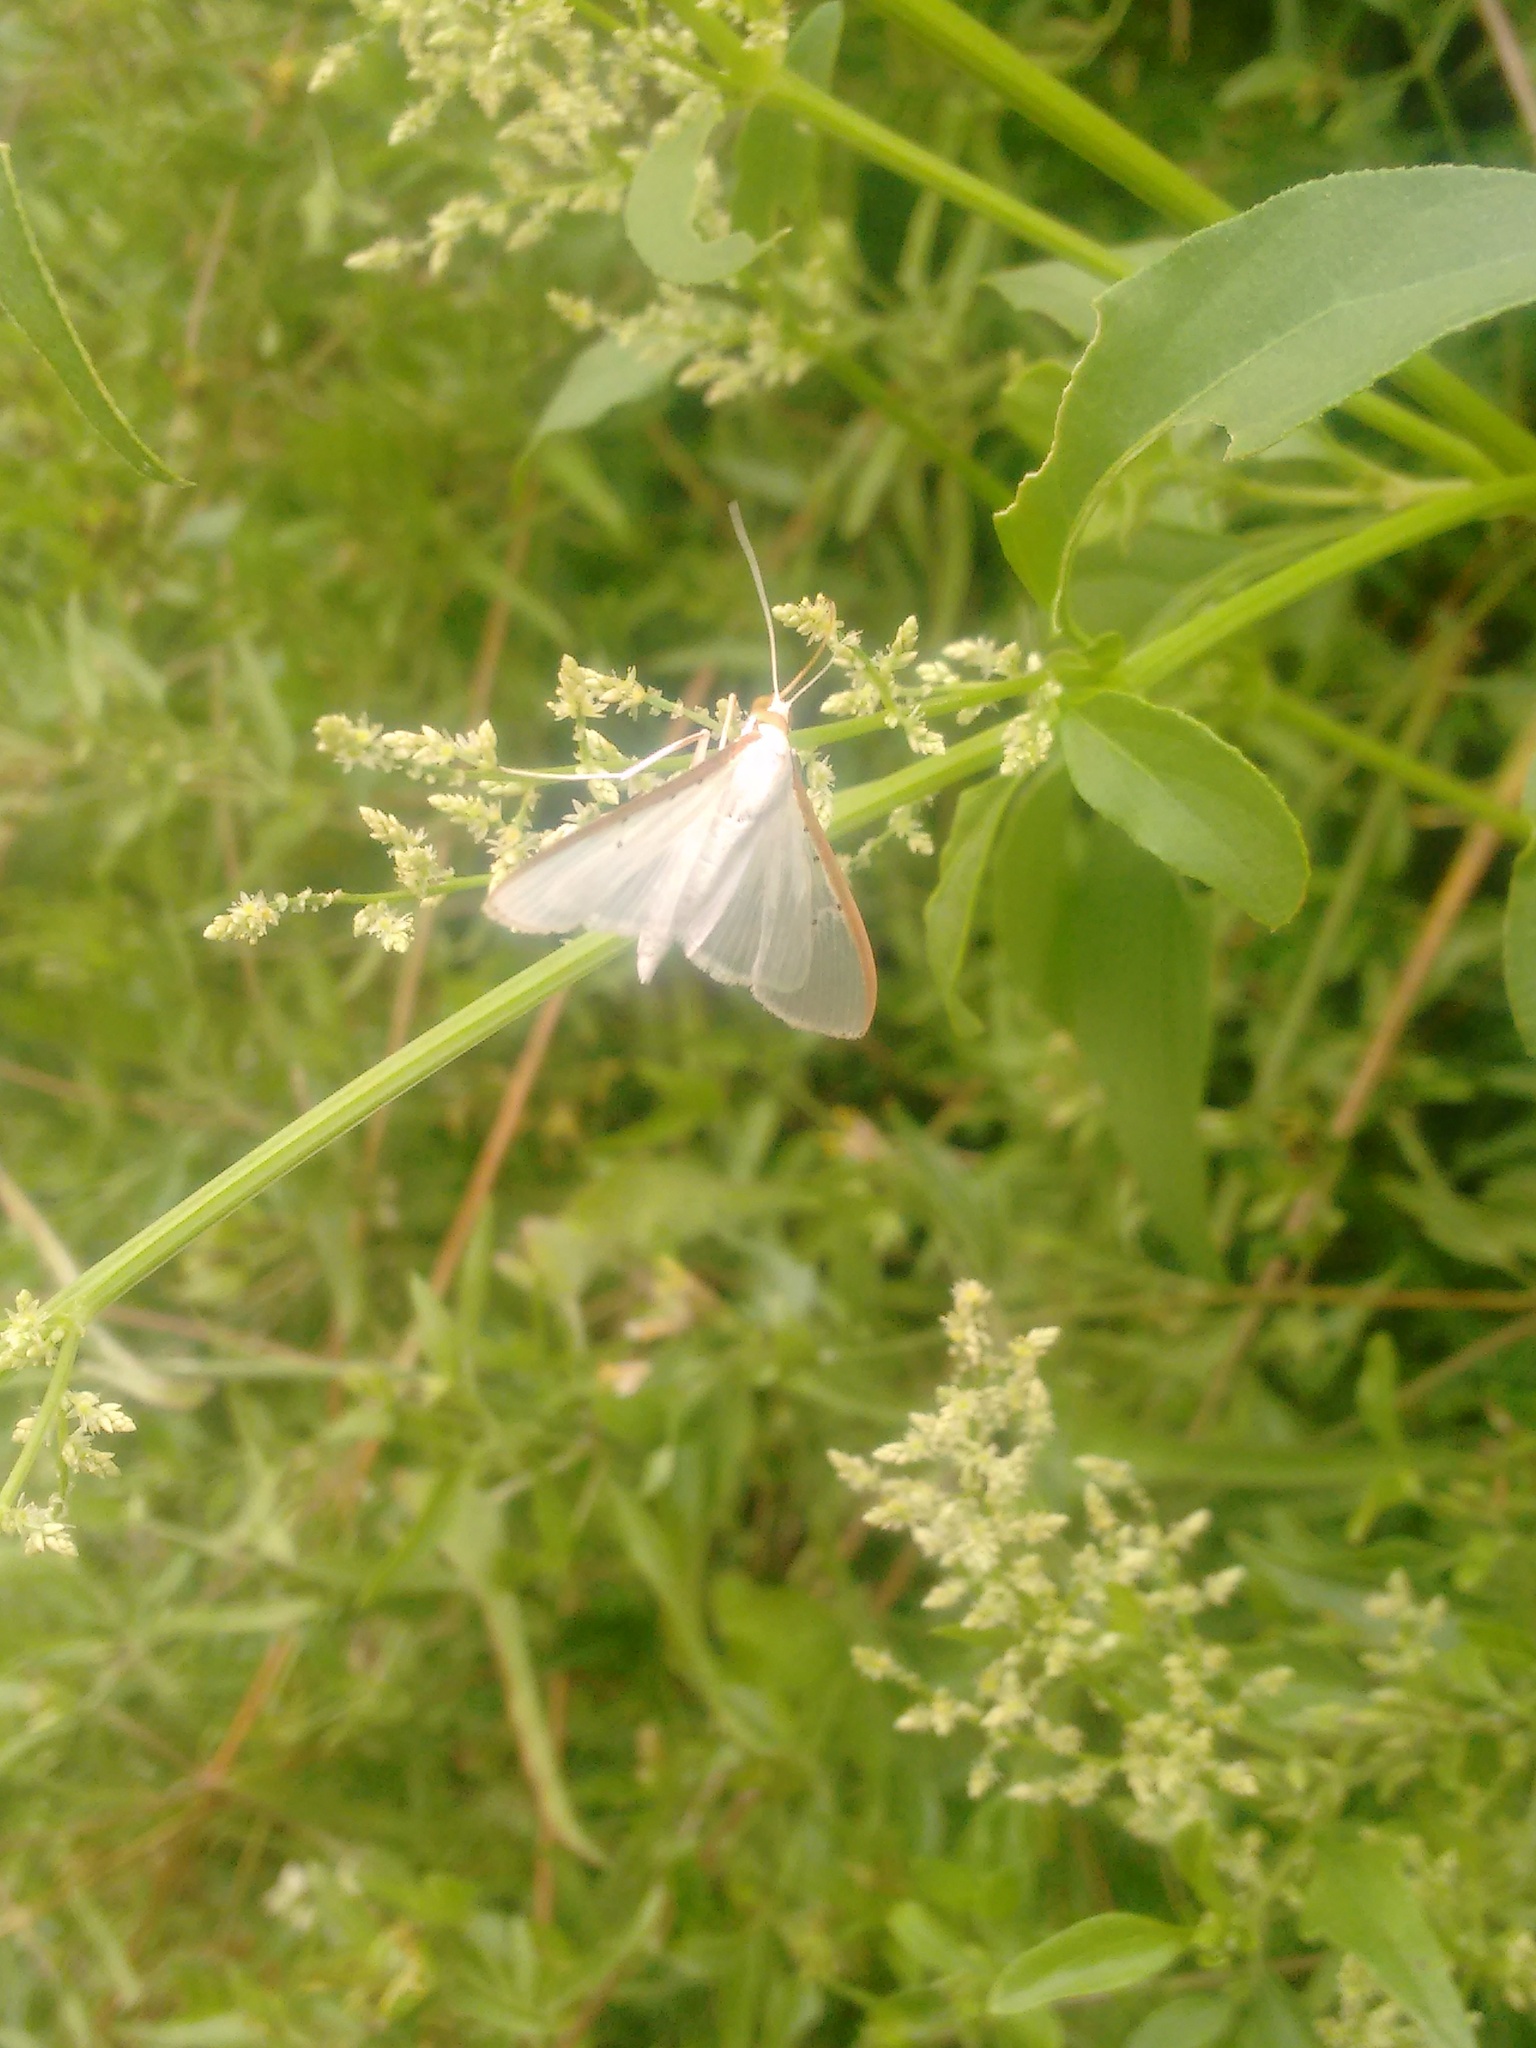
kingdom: Animalia
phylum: Arthropoda
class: Insecta
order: Lepidoptera
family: Crambidae
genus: Palpita
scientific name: Palpita quadristigmalis
